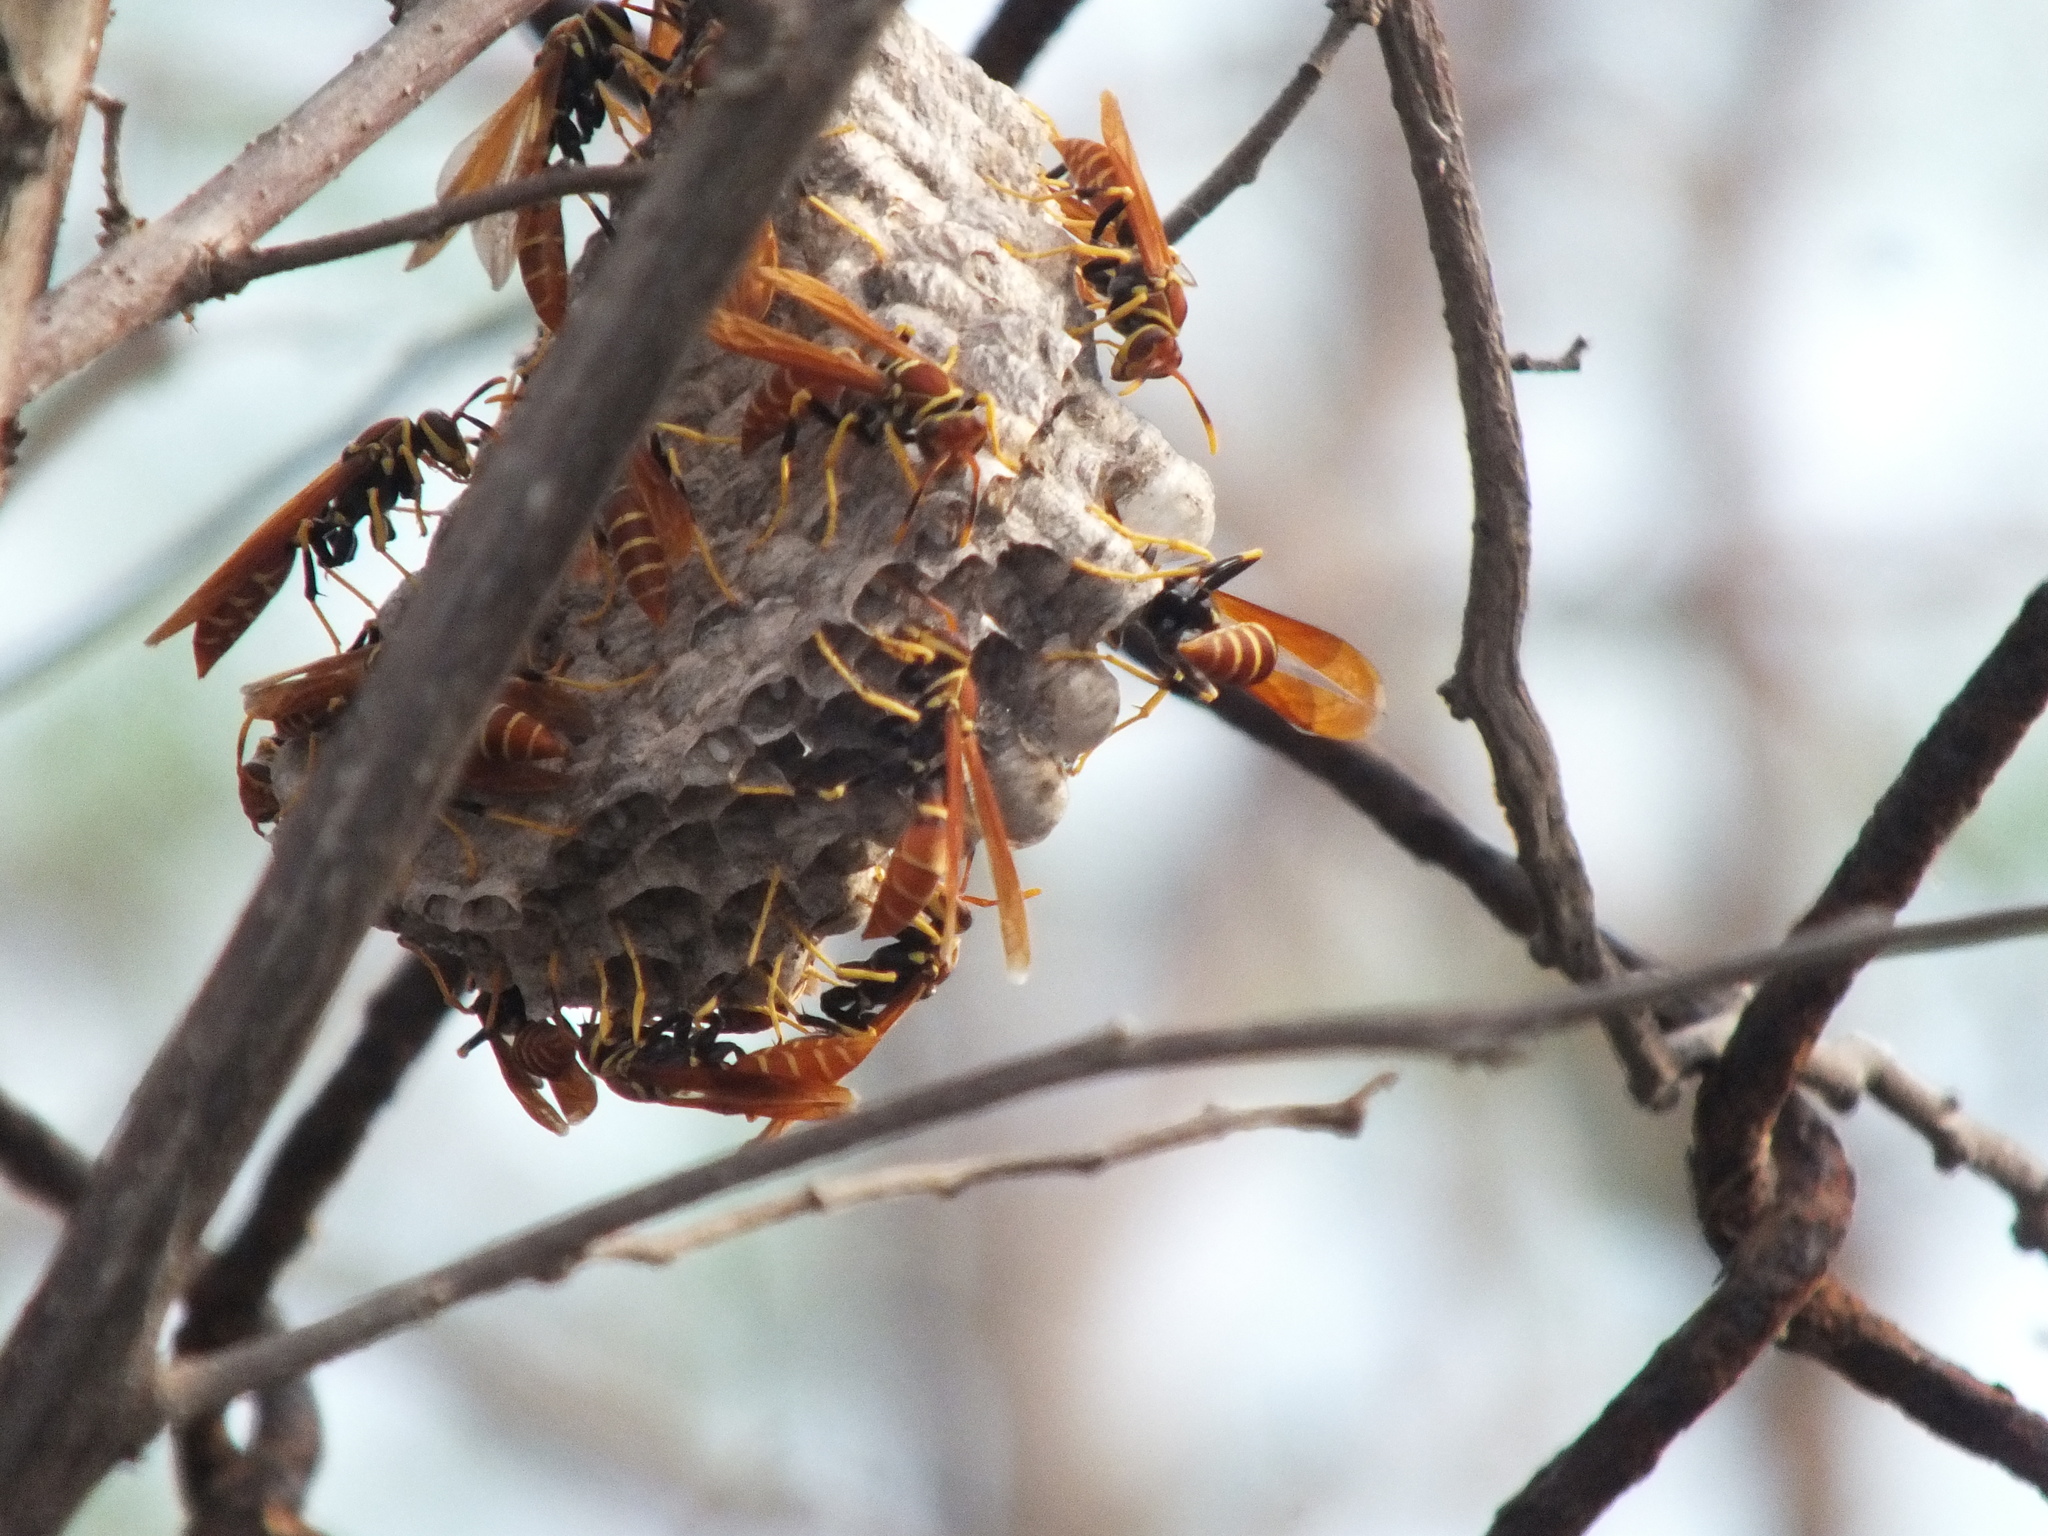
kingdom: Animalia
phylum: Arthropoda
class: Insecta
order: Hymenoptera
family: Eumenidae
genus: Polistes
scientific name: Polistes crinitus
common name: Jack spaniard
